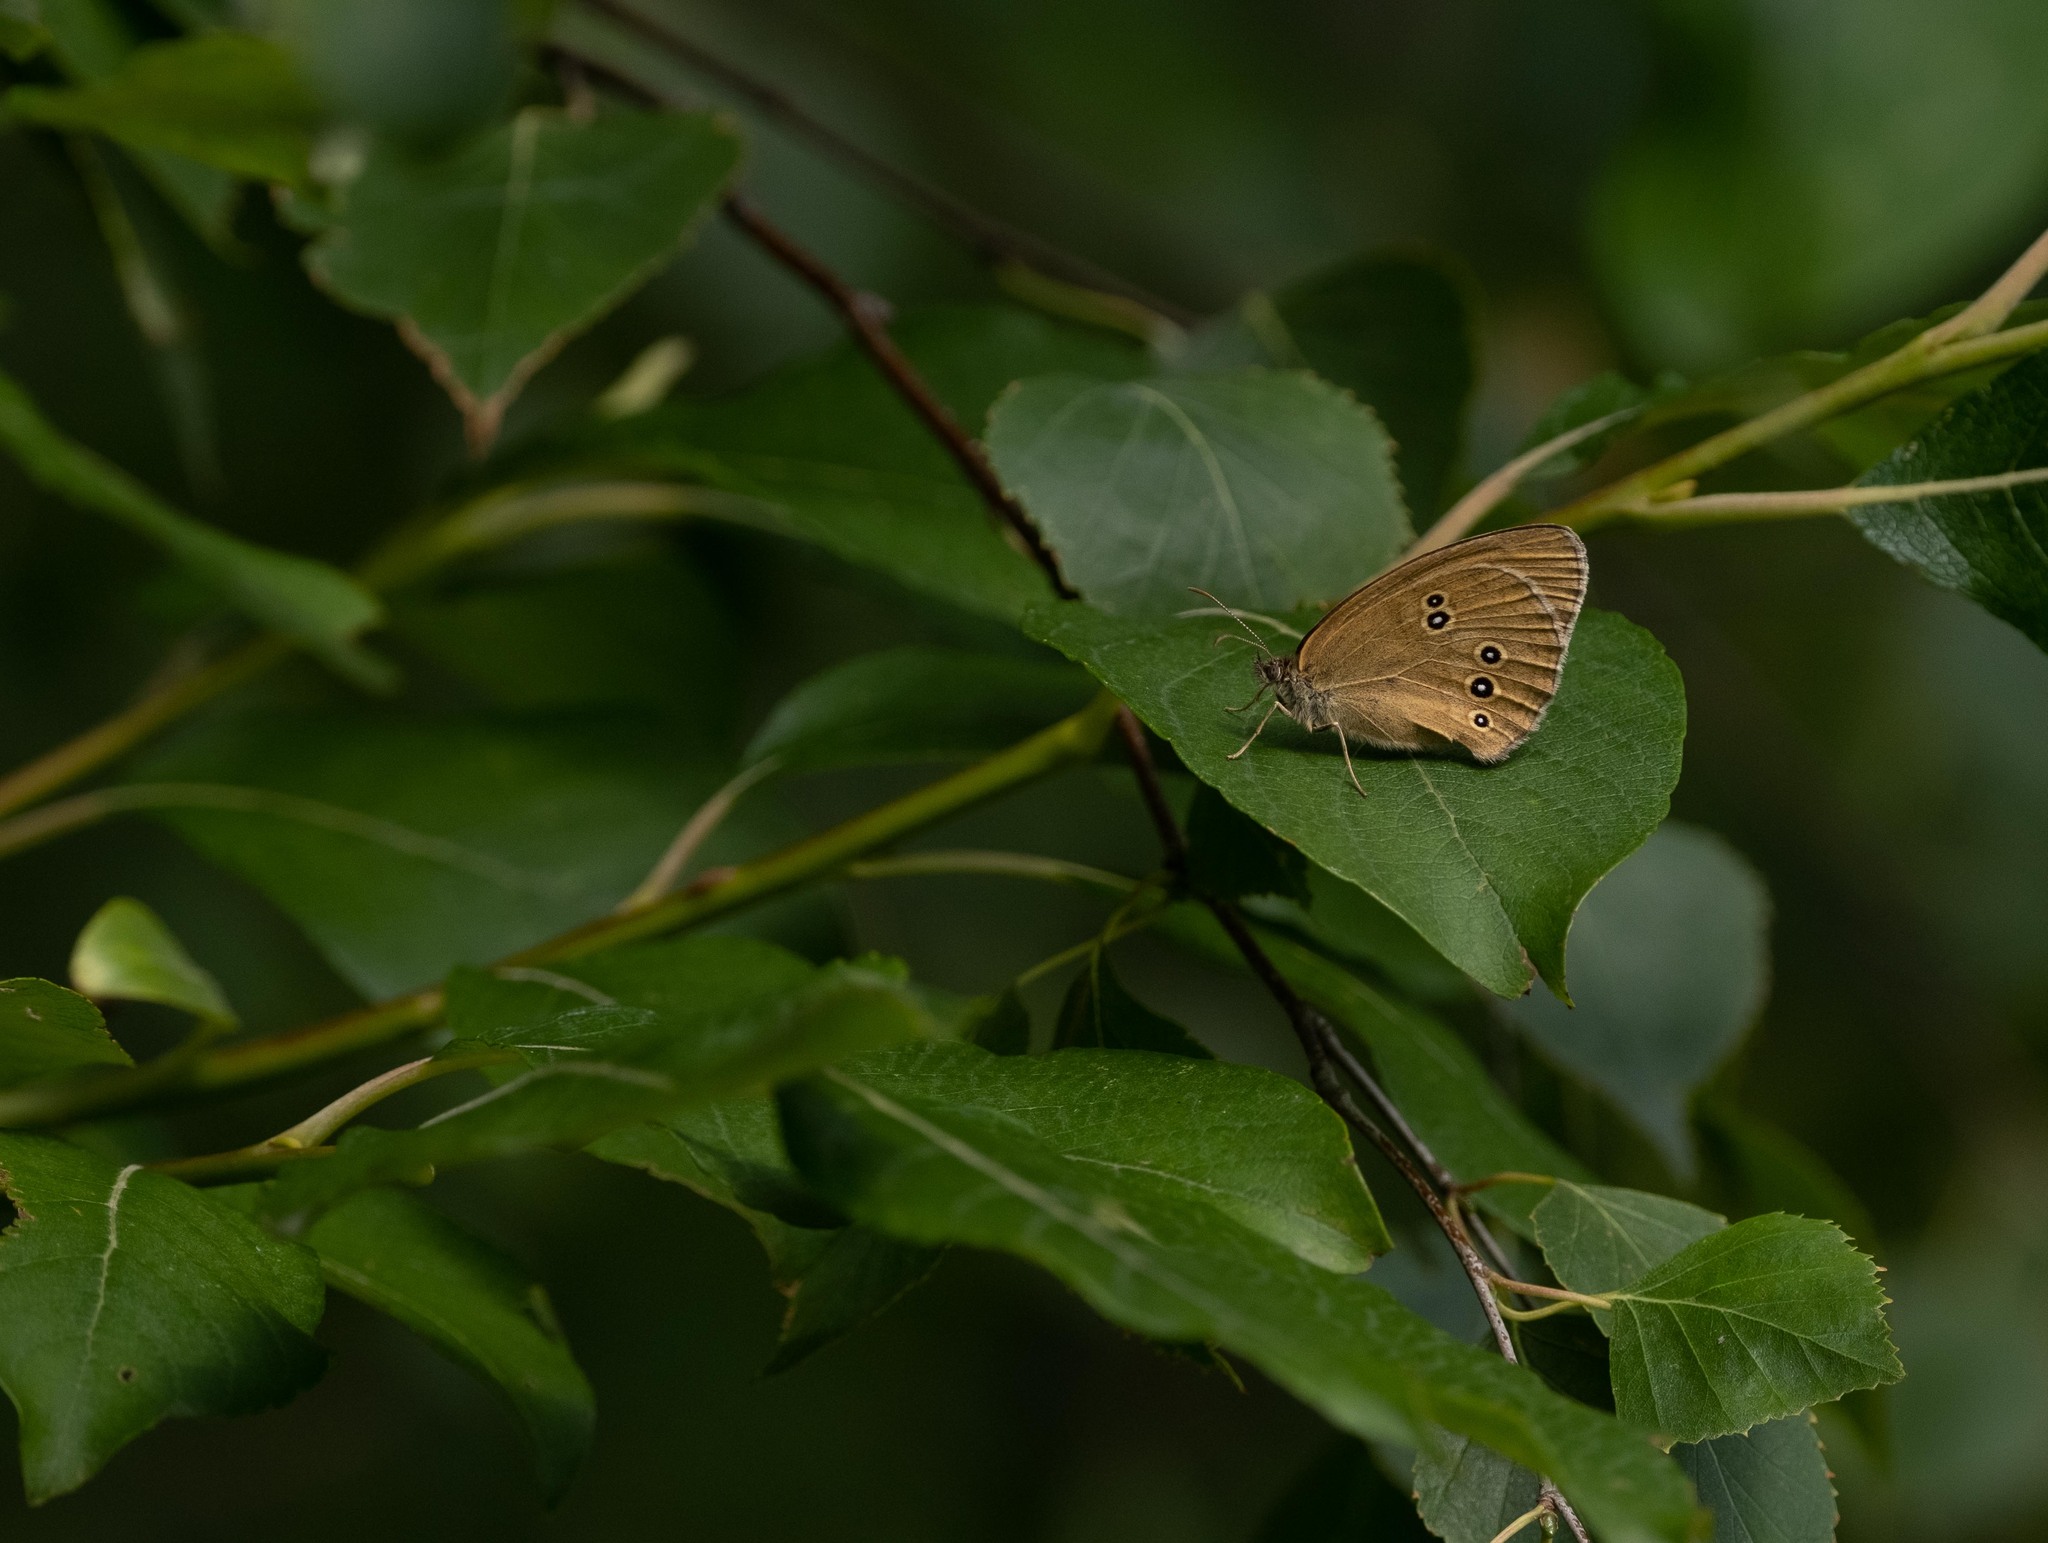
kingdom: Animalia
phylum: Arthropoda
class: Insecta
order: Lepidoptera
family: Nymphalidae
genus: Aphantopus
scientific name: Aphantopus hyperantus
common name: Ringlet
